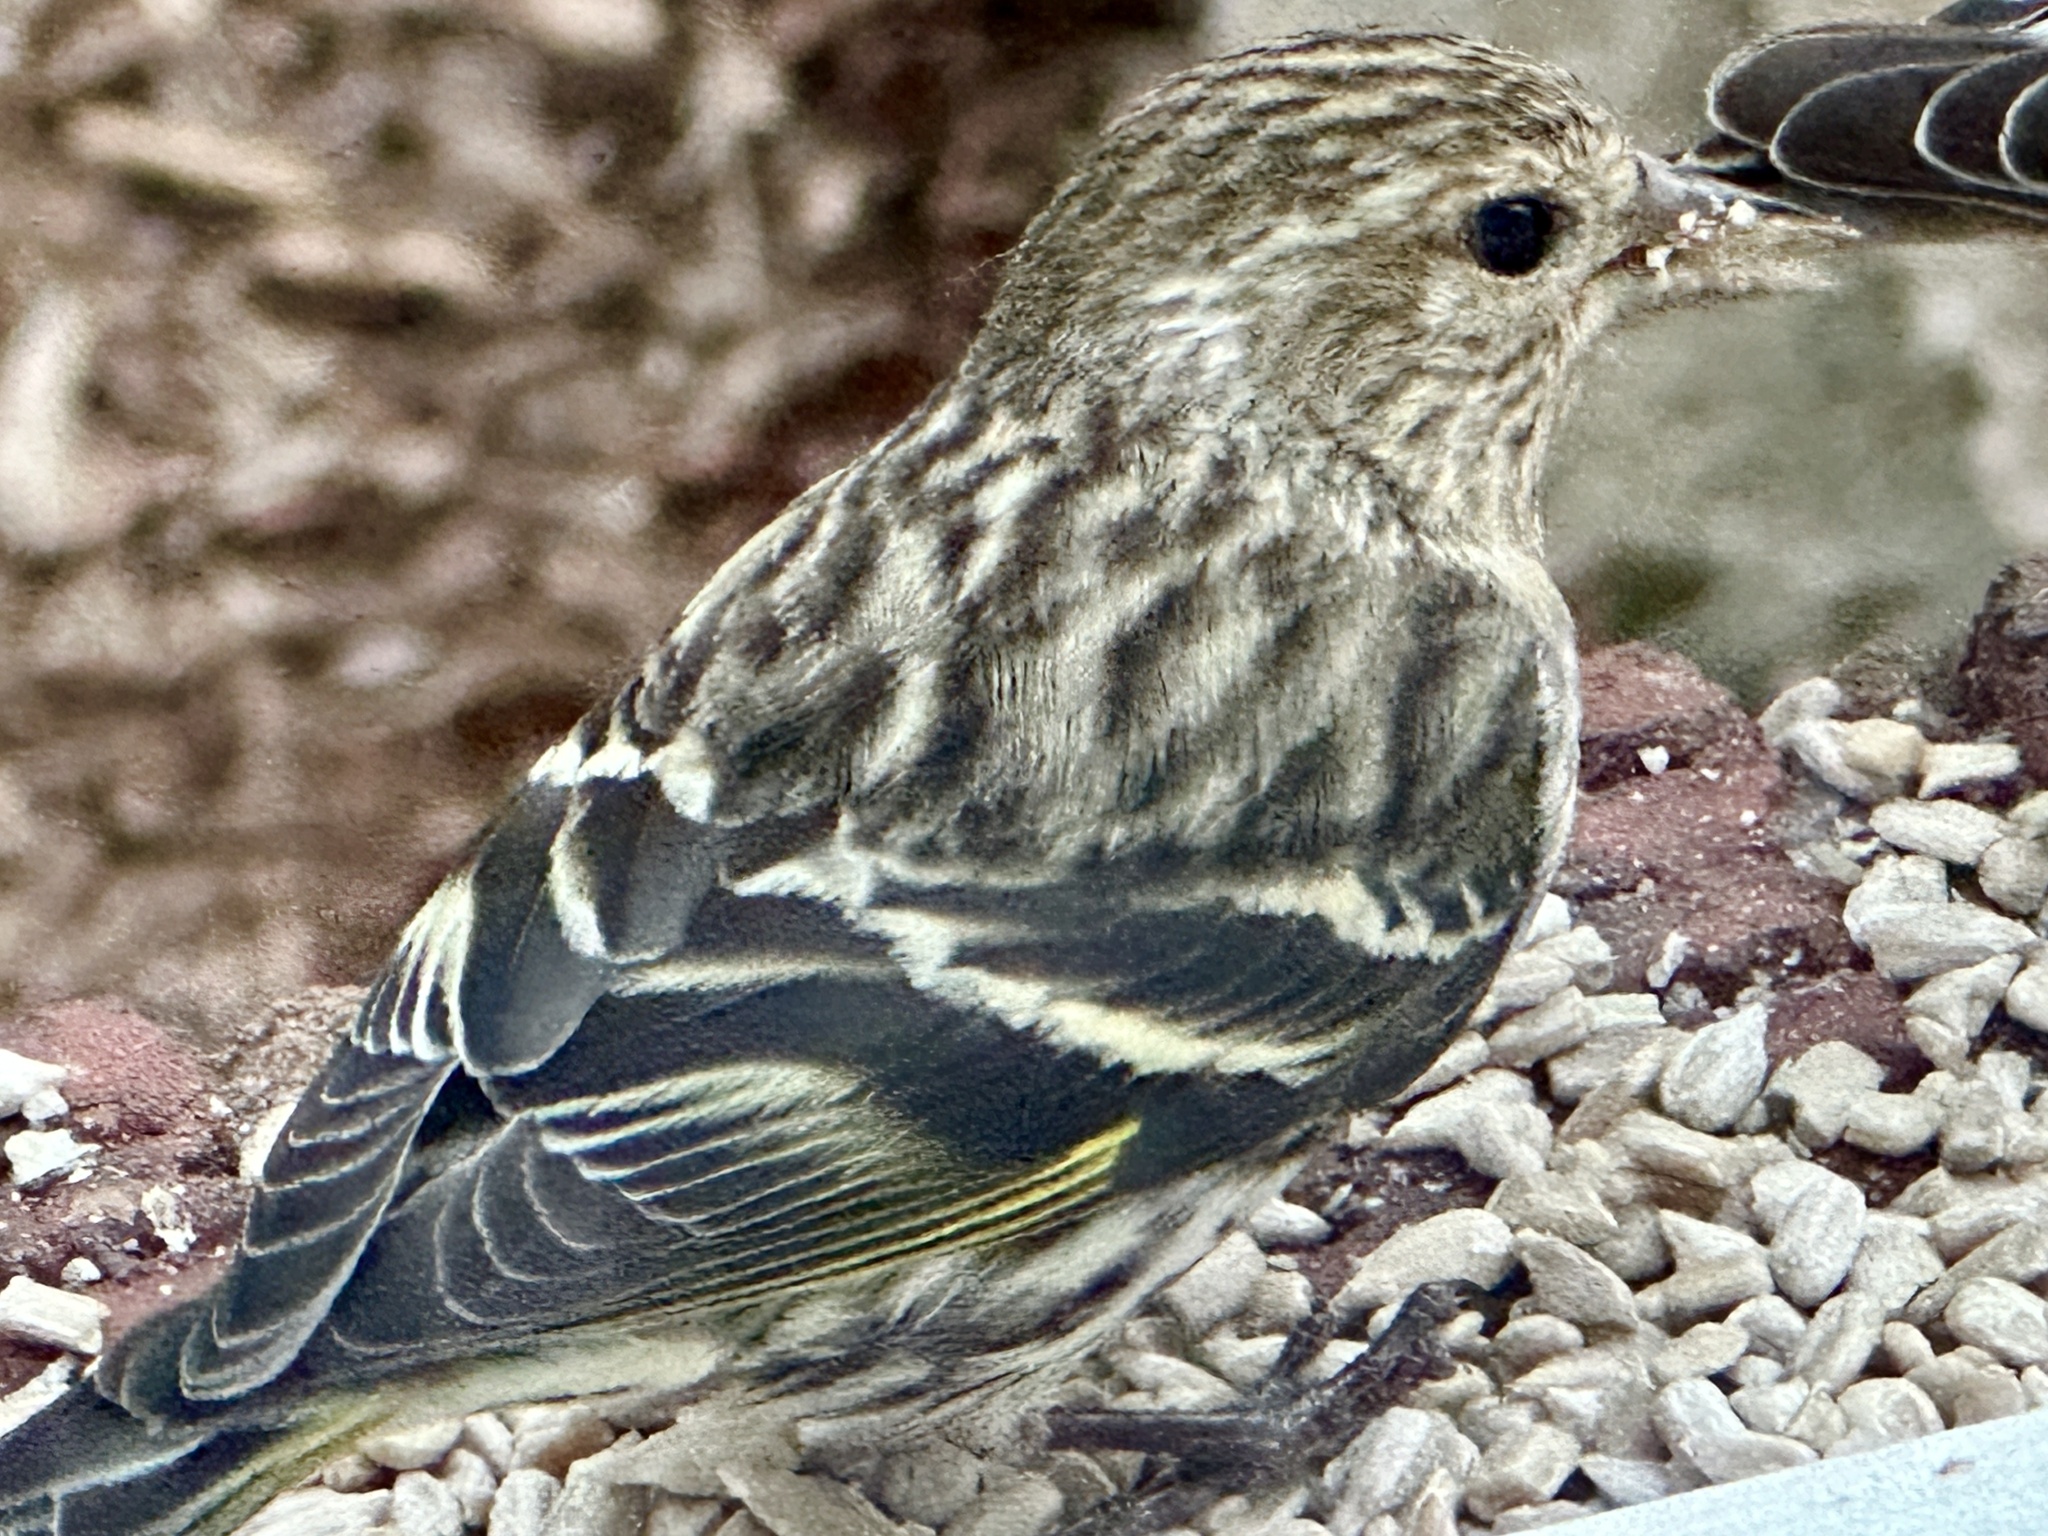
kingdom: Animalia
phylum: Chordata
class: Aves
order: Passeriformes
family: Fringillidae
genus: Spinus
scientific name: Spinus pinus
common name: Pine siskin
